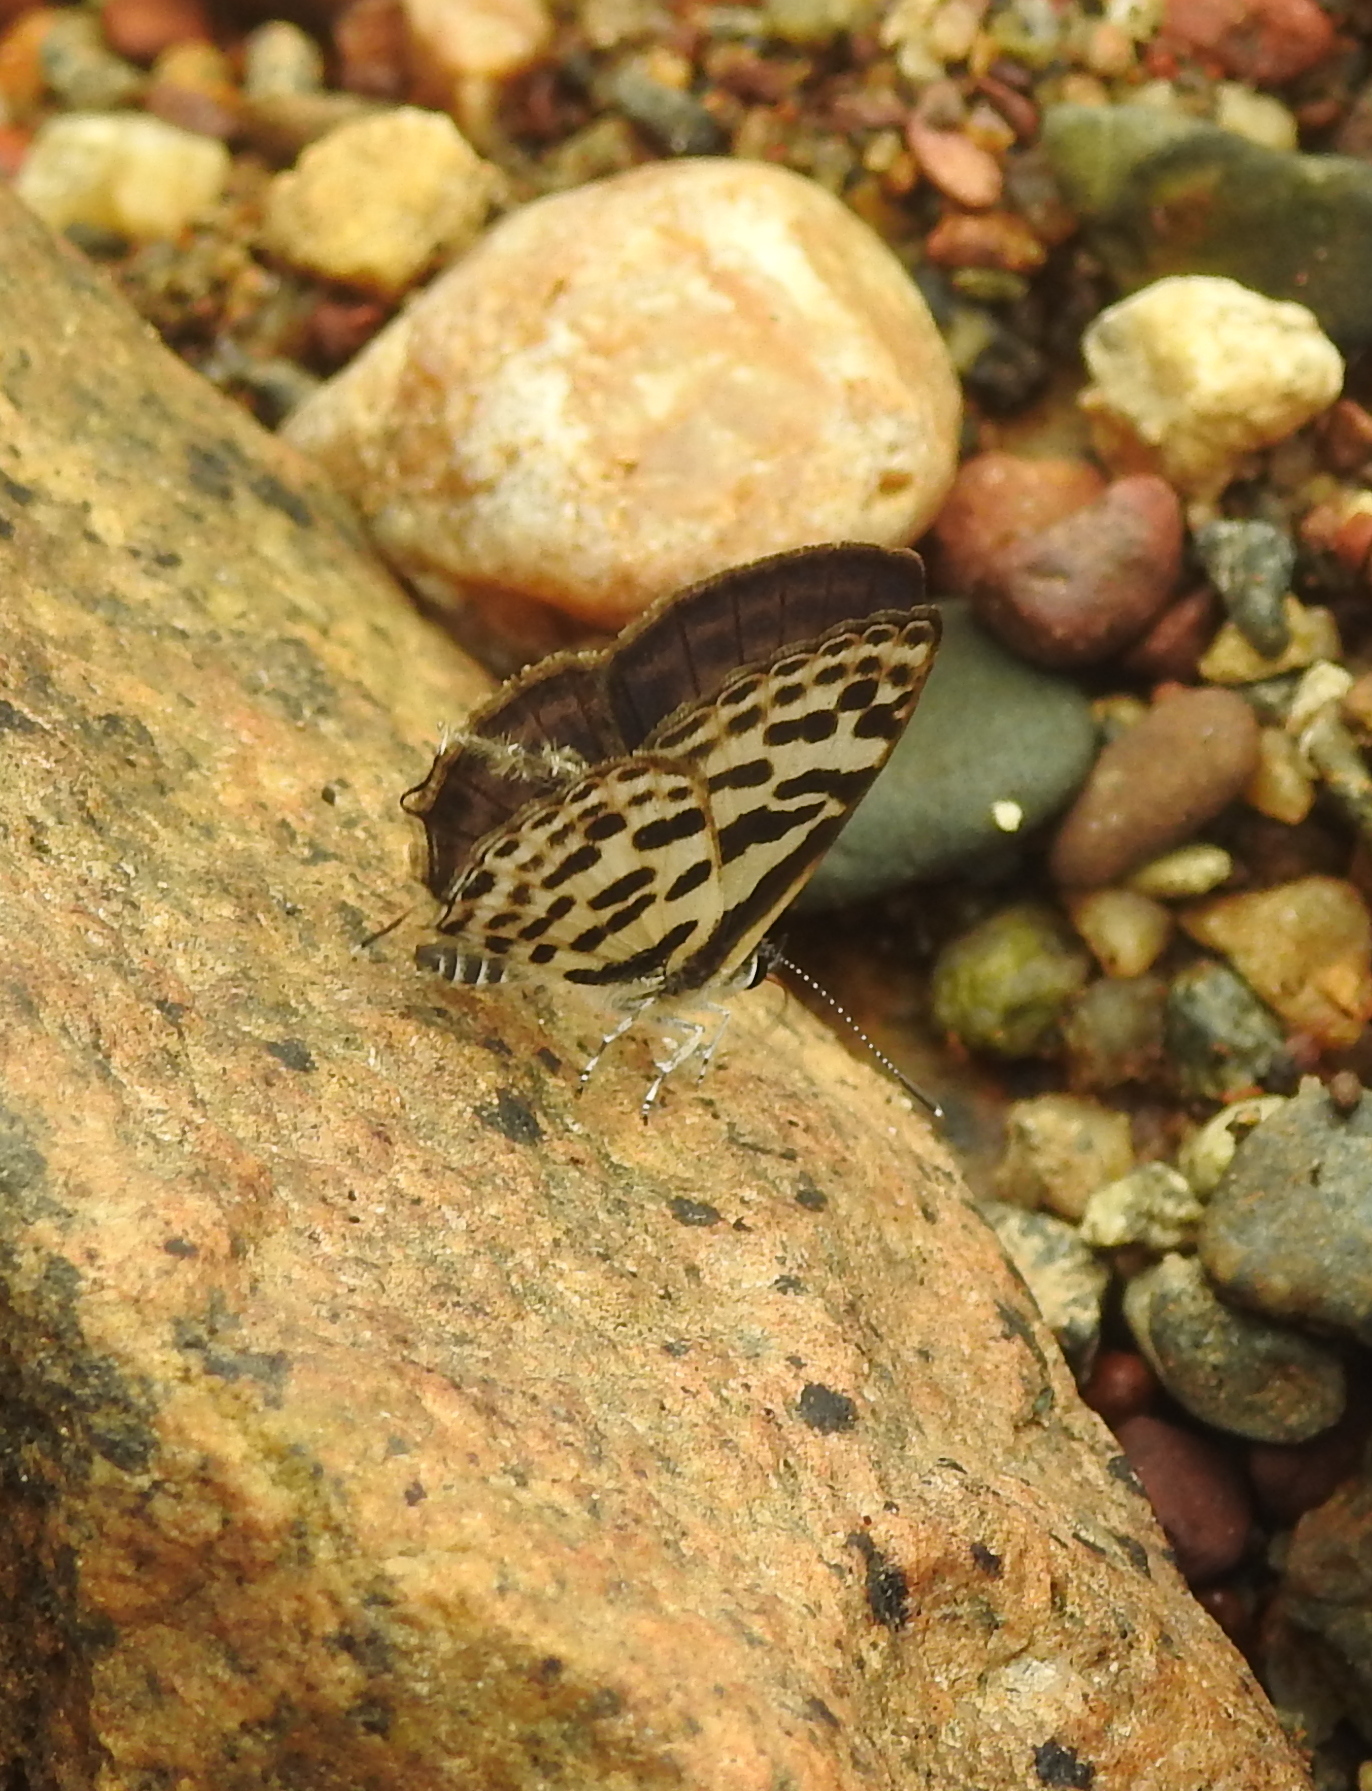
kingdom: Animalia
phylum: Arthropoda
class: Insecta
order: Lepidoptera
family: Lycaenidae
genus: Tarucus
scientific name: Tarucus
